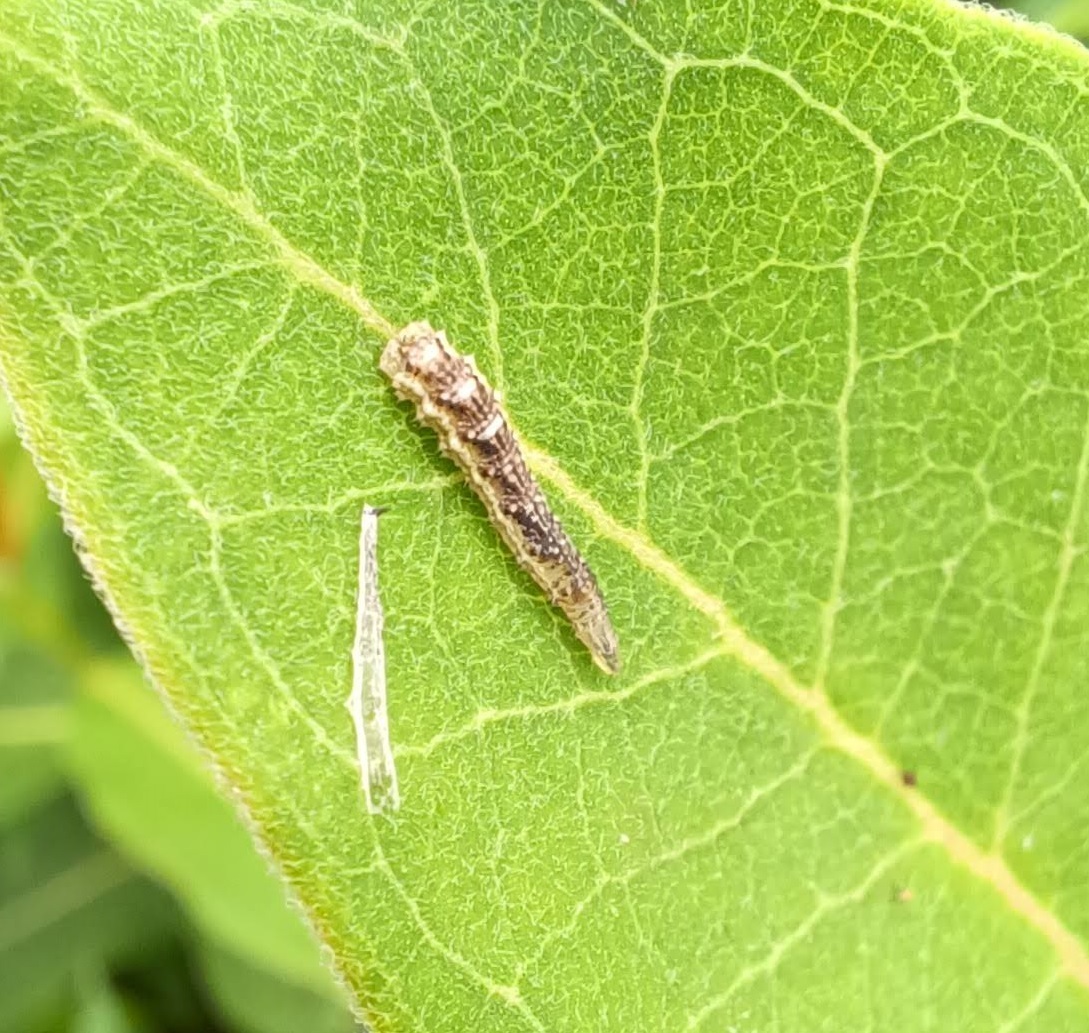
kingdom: Animalia
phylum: Arthropoda
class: Insecta
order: Diptera
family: Syrphidae
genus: Eupeodes
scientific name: Eupeodes americanus
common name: Long-tailed aphideater
